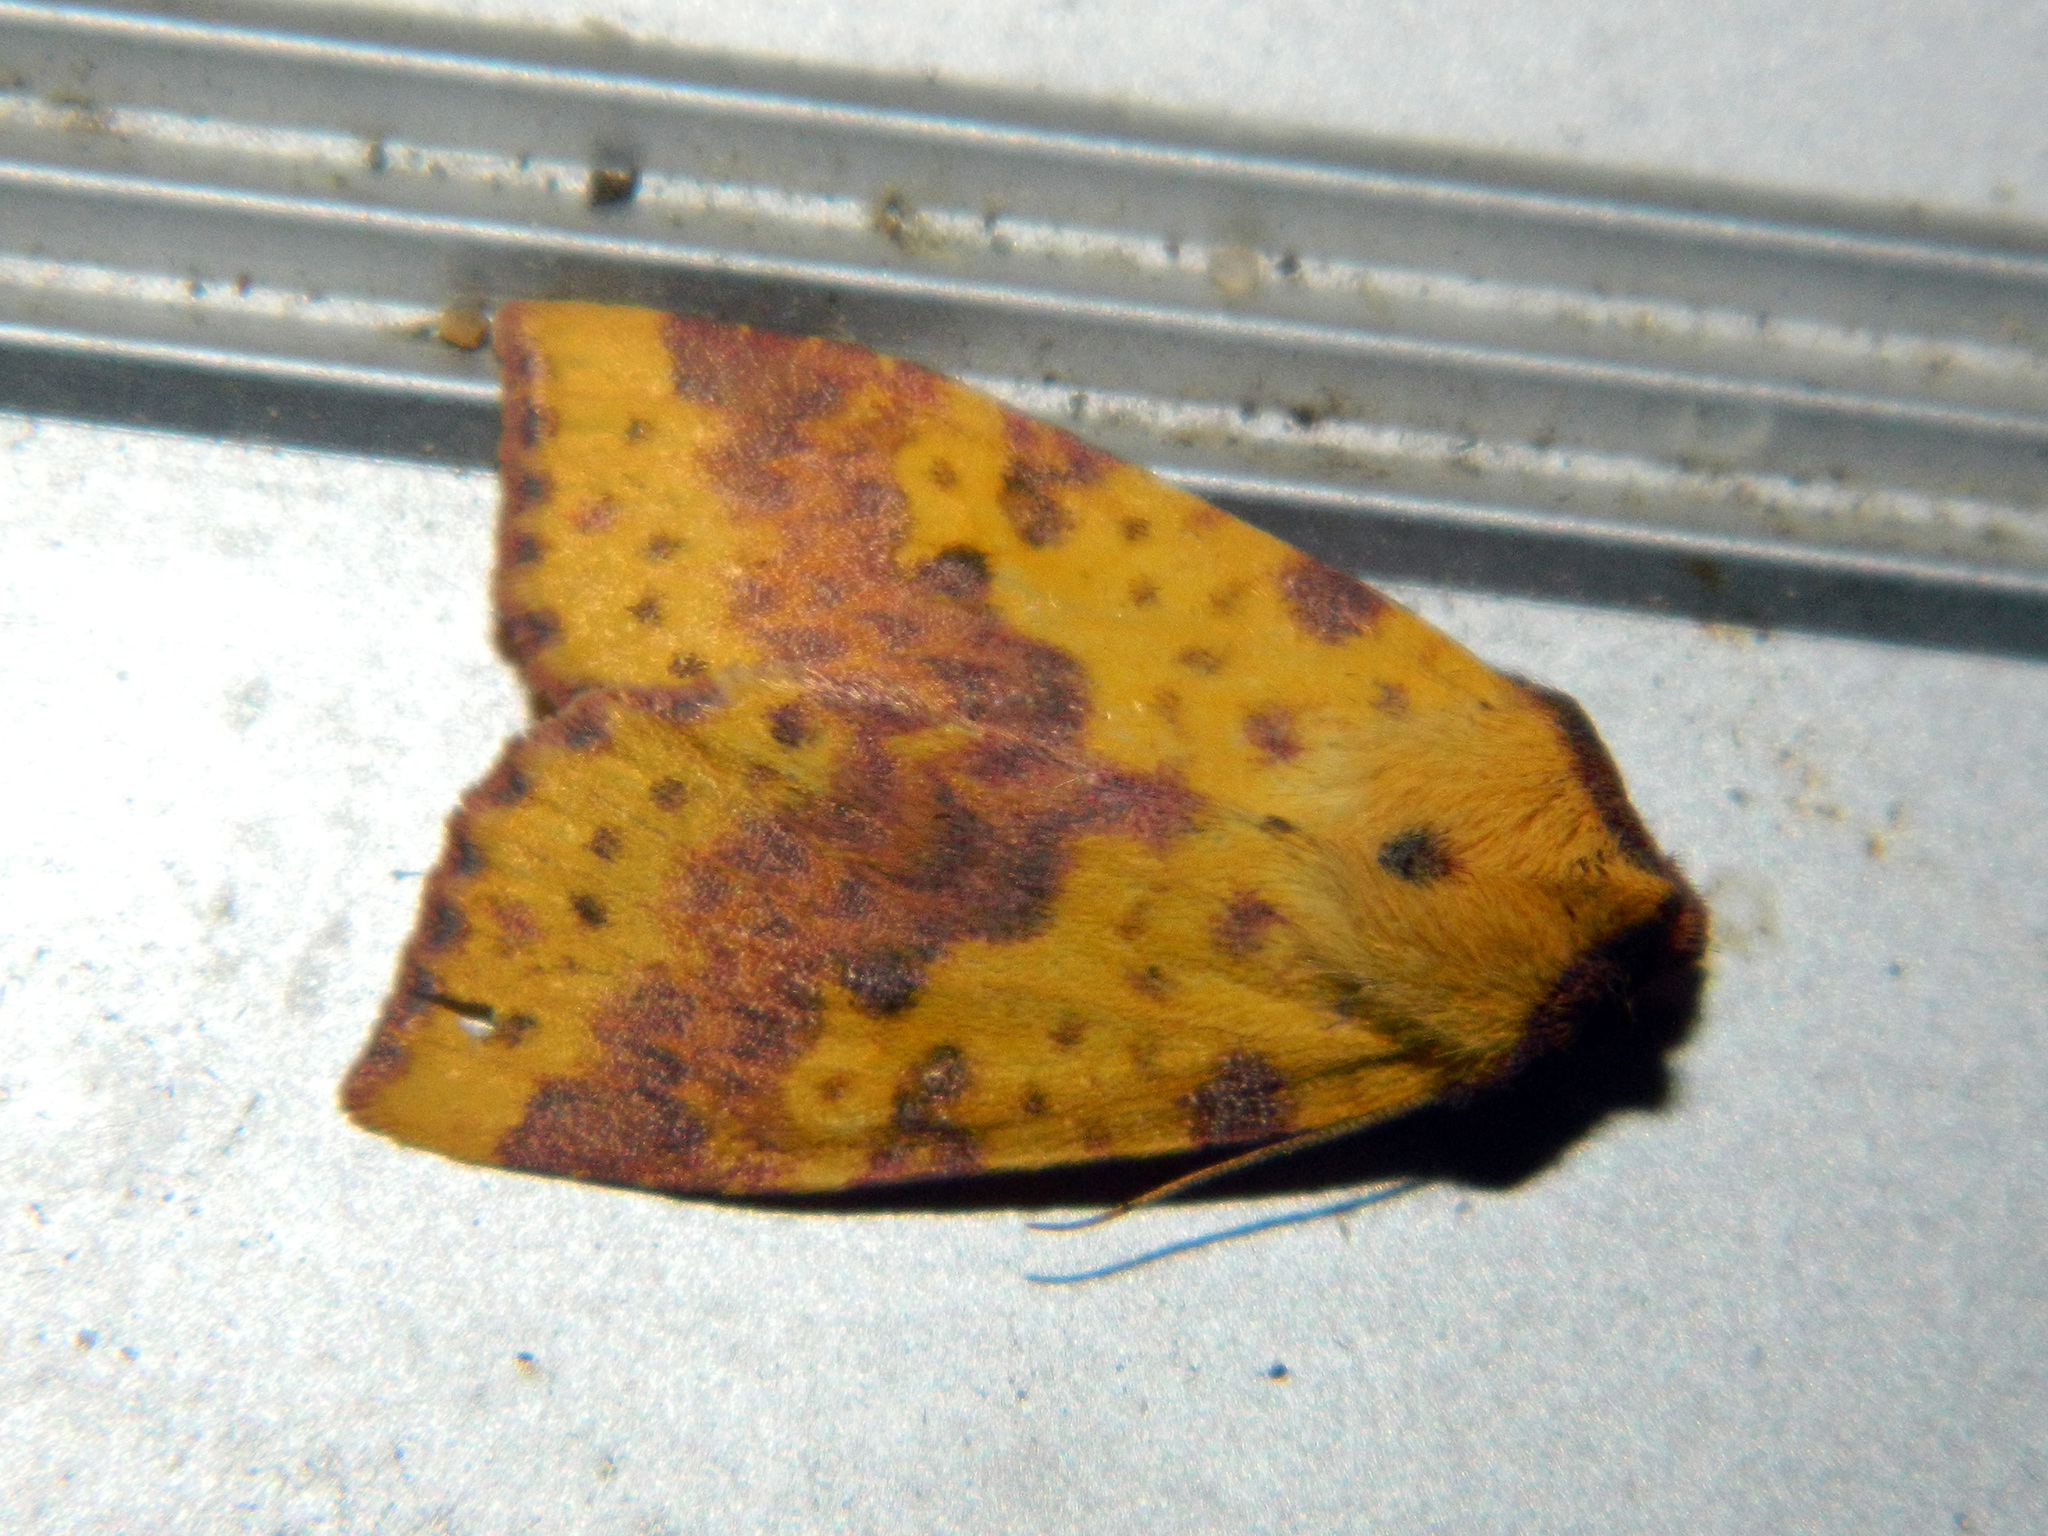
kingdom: Animalia
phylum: Arthropoda
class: Insecta
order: Lepidoptera
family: Noctuidae
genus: Xanthia
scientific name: Xanthia tatago
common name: Pink-banded sallow
